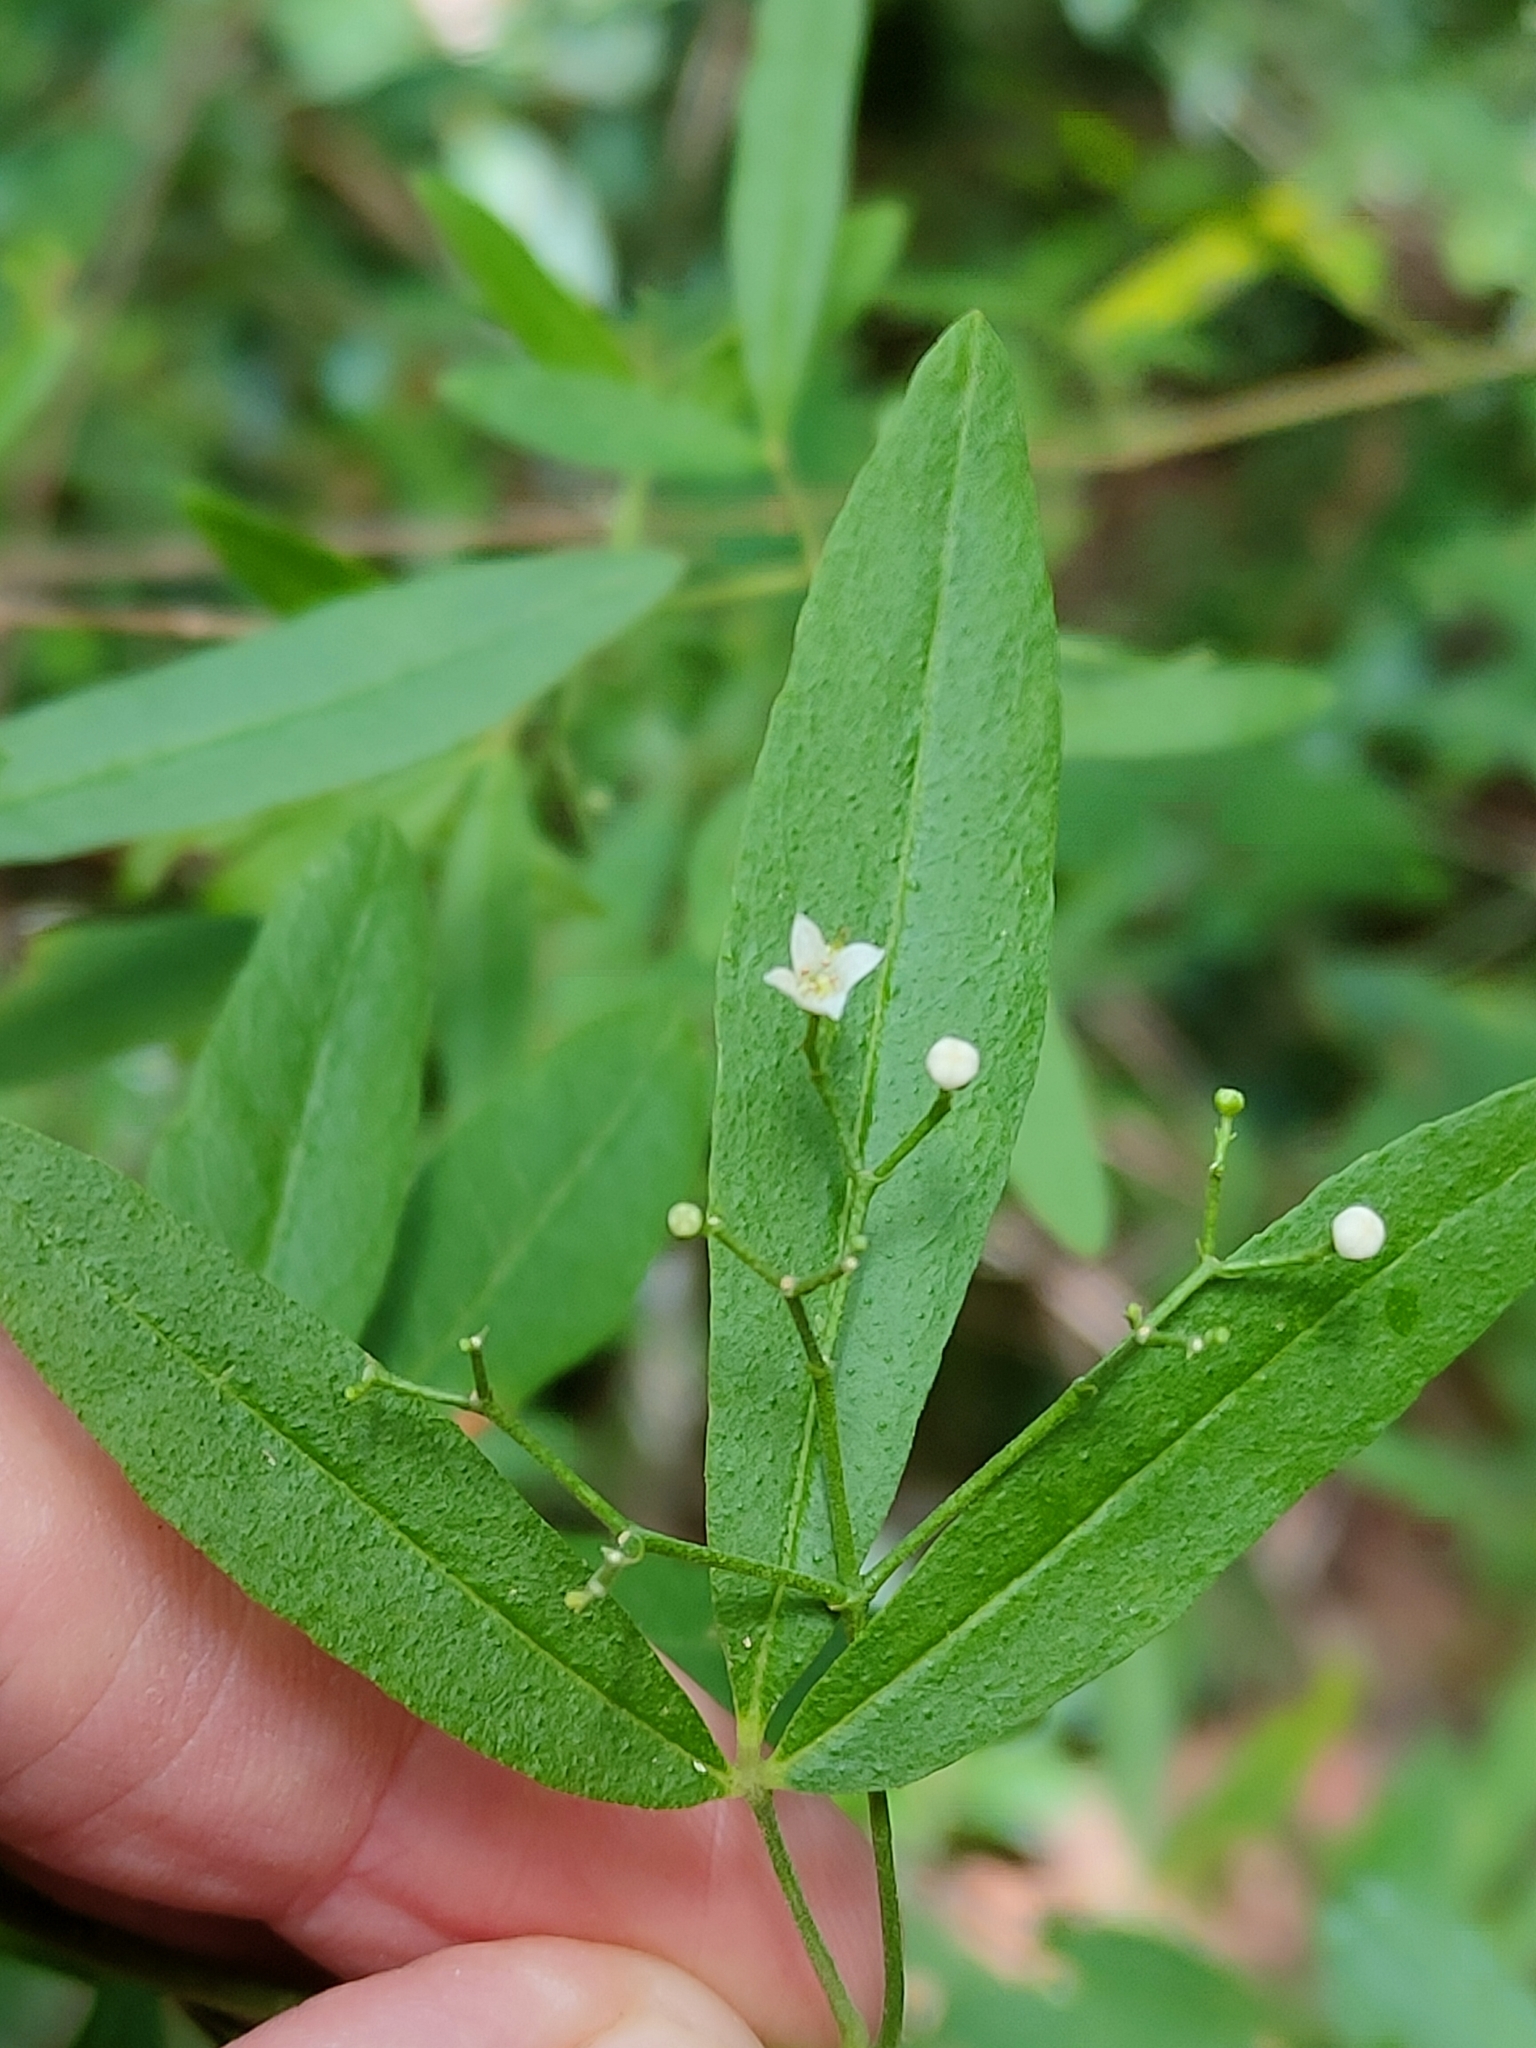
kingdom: Plantae
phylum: Tracheophyta
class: Magnoliopsida
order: Sapindales
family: Rutaceae
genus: Zieria
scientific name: Zieria smithii
